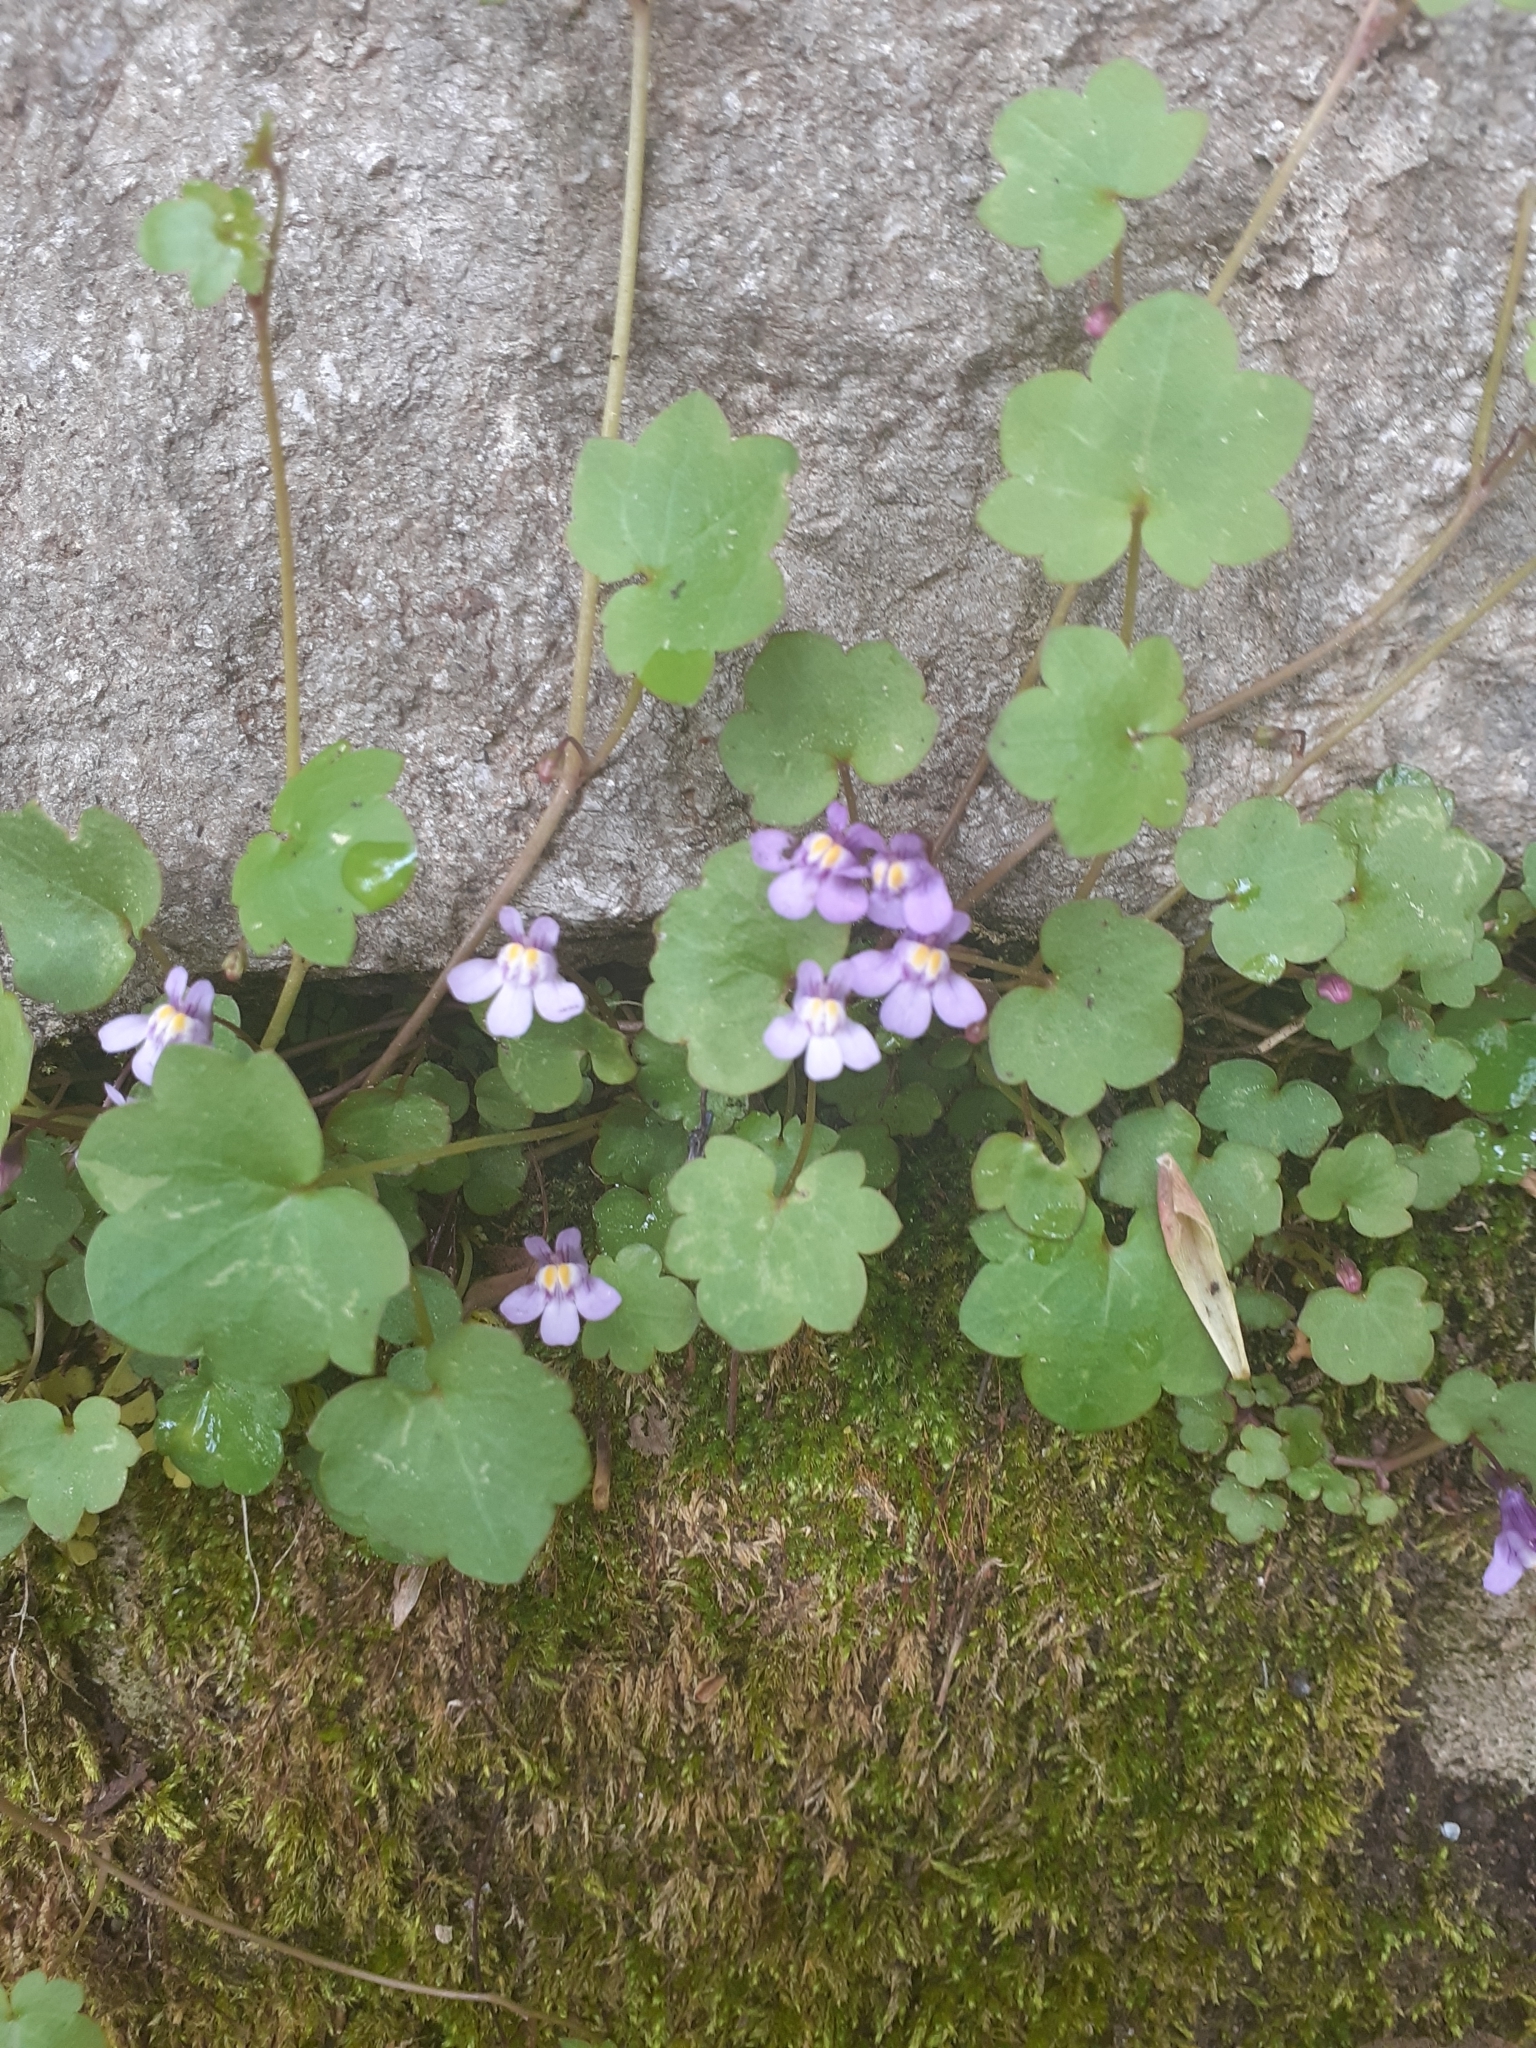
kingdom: Plantae
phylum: Tracheophyta
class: Magnoliopsida
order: Lamiales
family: Plantaginaceae
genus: Cymbalaria
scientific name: Cymbalaria muralis
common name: Ivy-leaved toadflax
